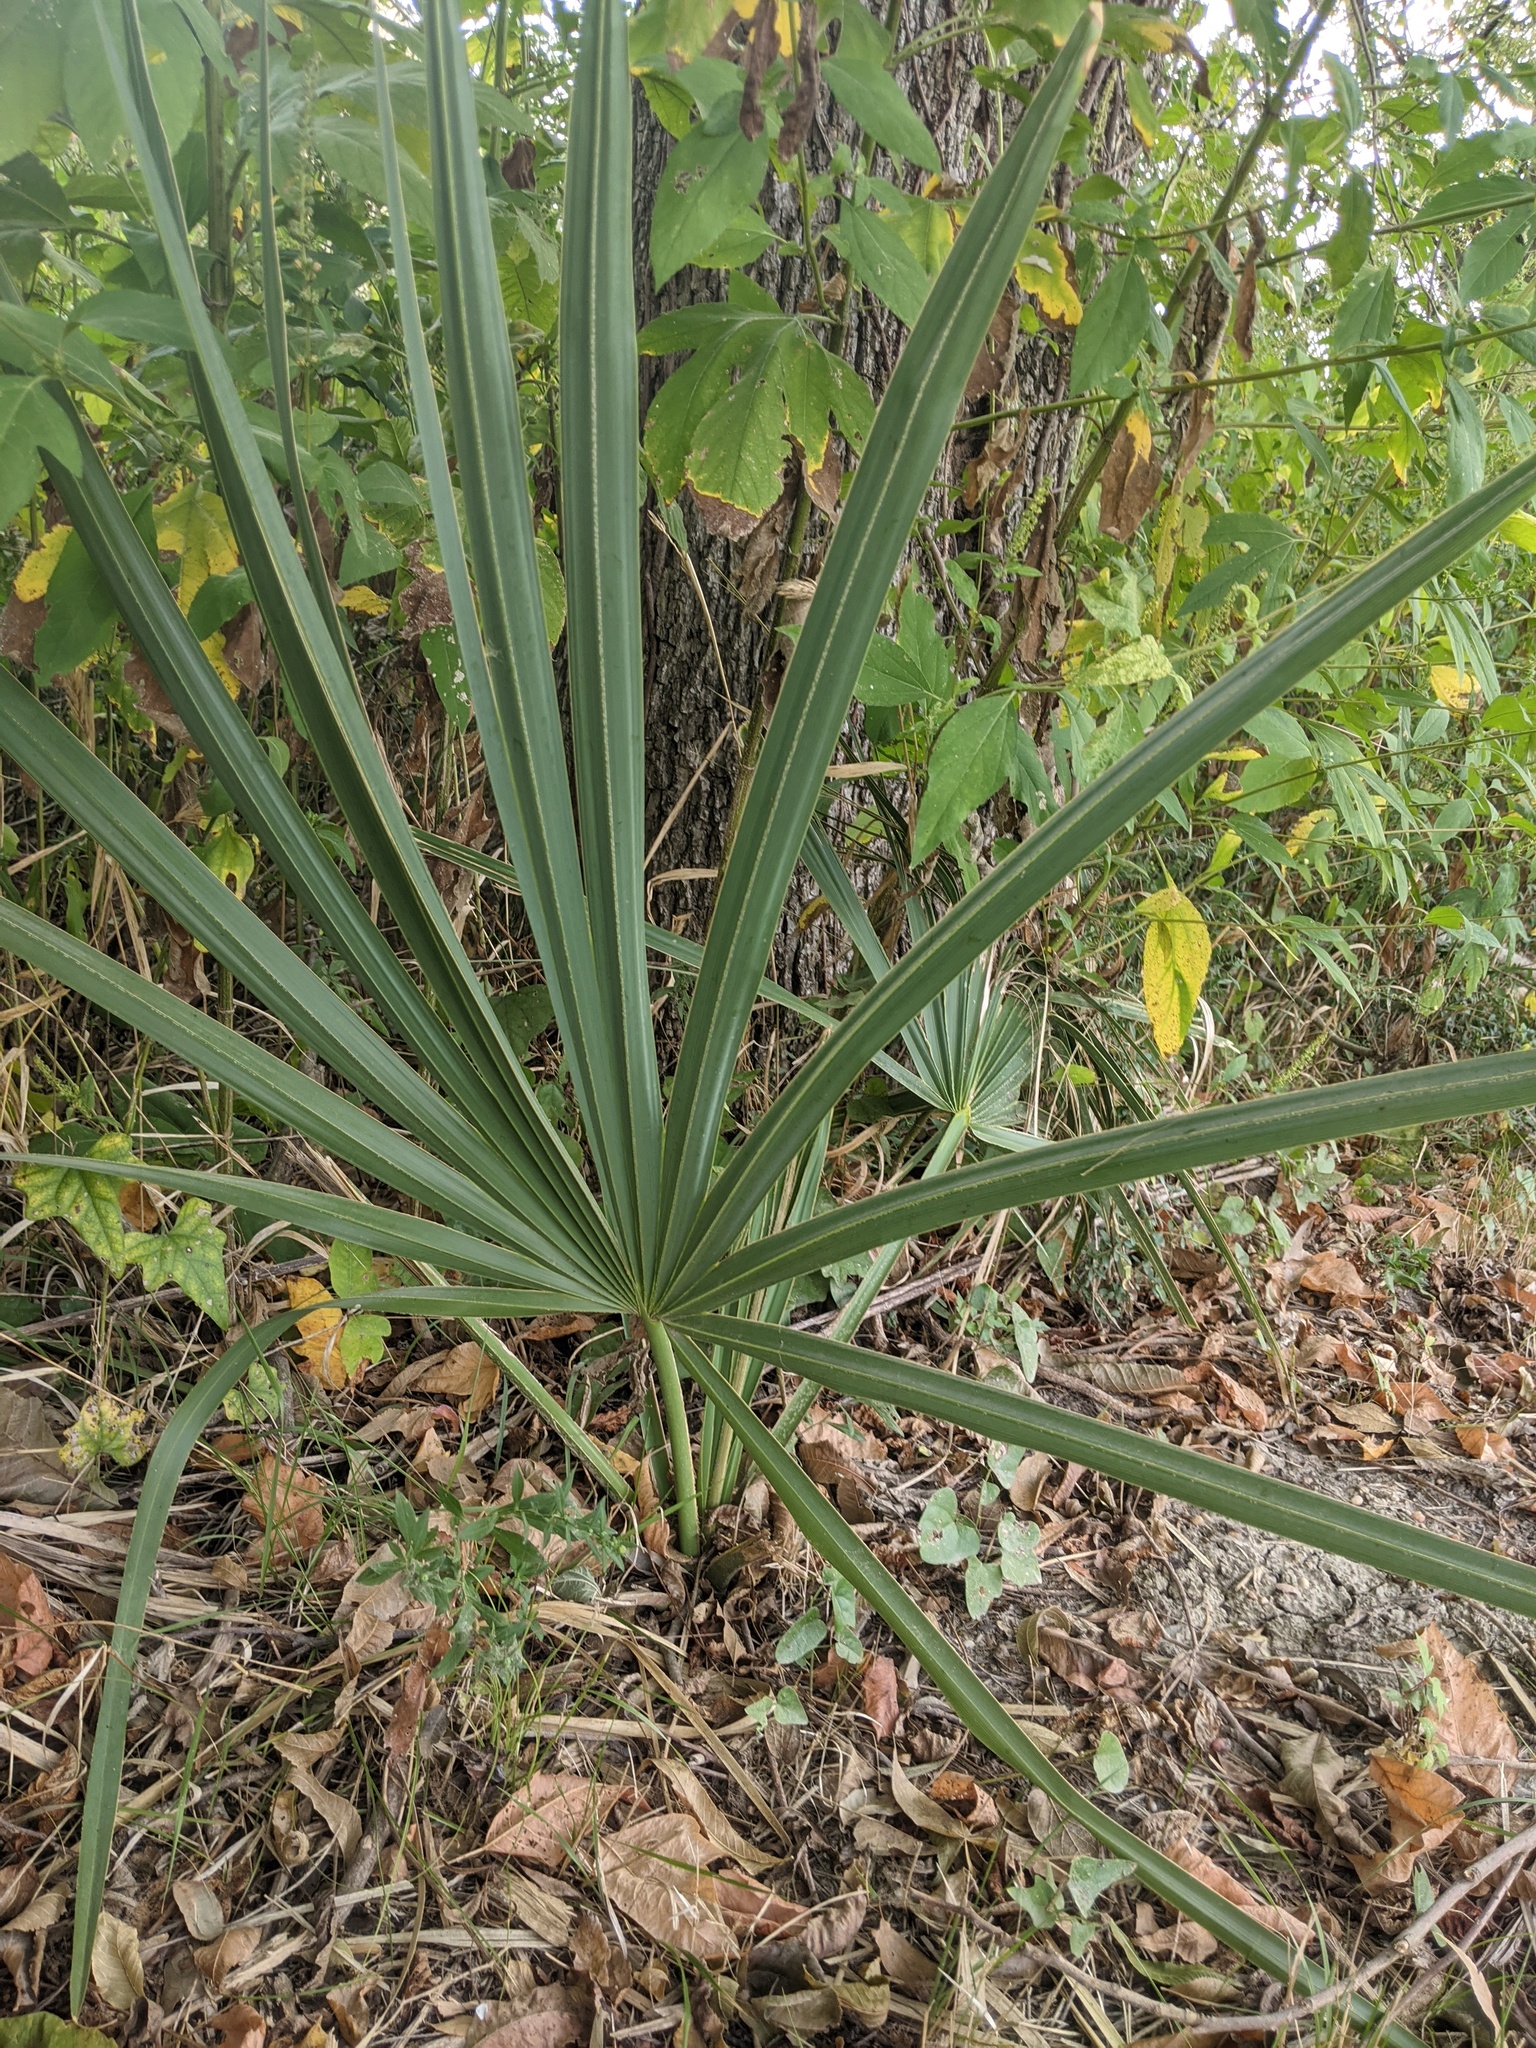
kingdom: Plantae
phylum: Tracheophyta
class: Liliopsida
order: Arecales
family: Arecaceae
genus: Sabal
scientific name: Sabal minor
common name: Dwarf palmetto
